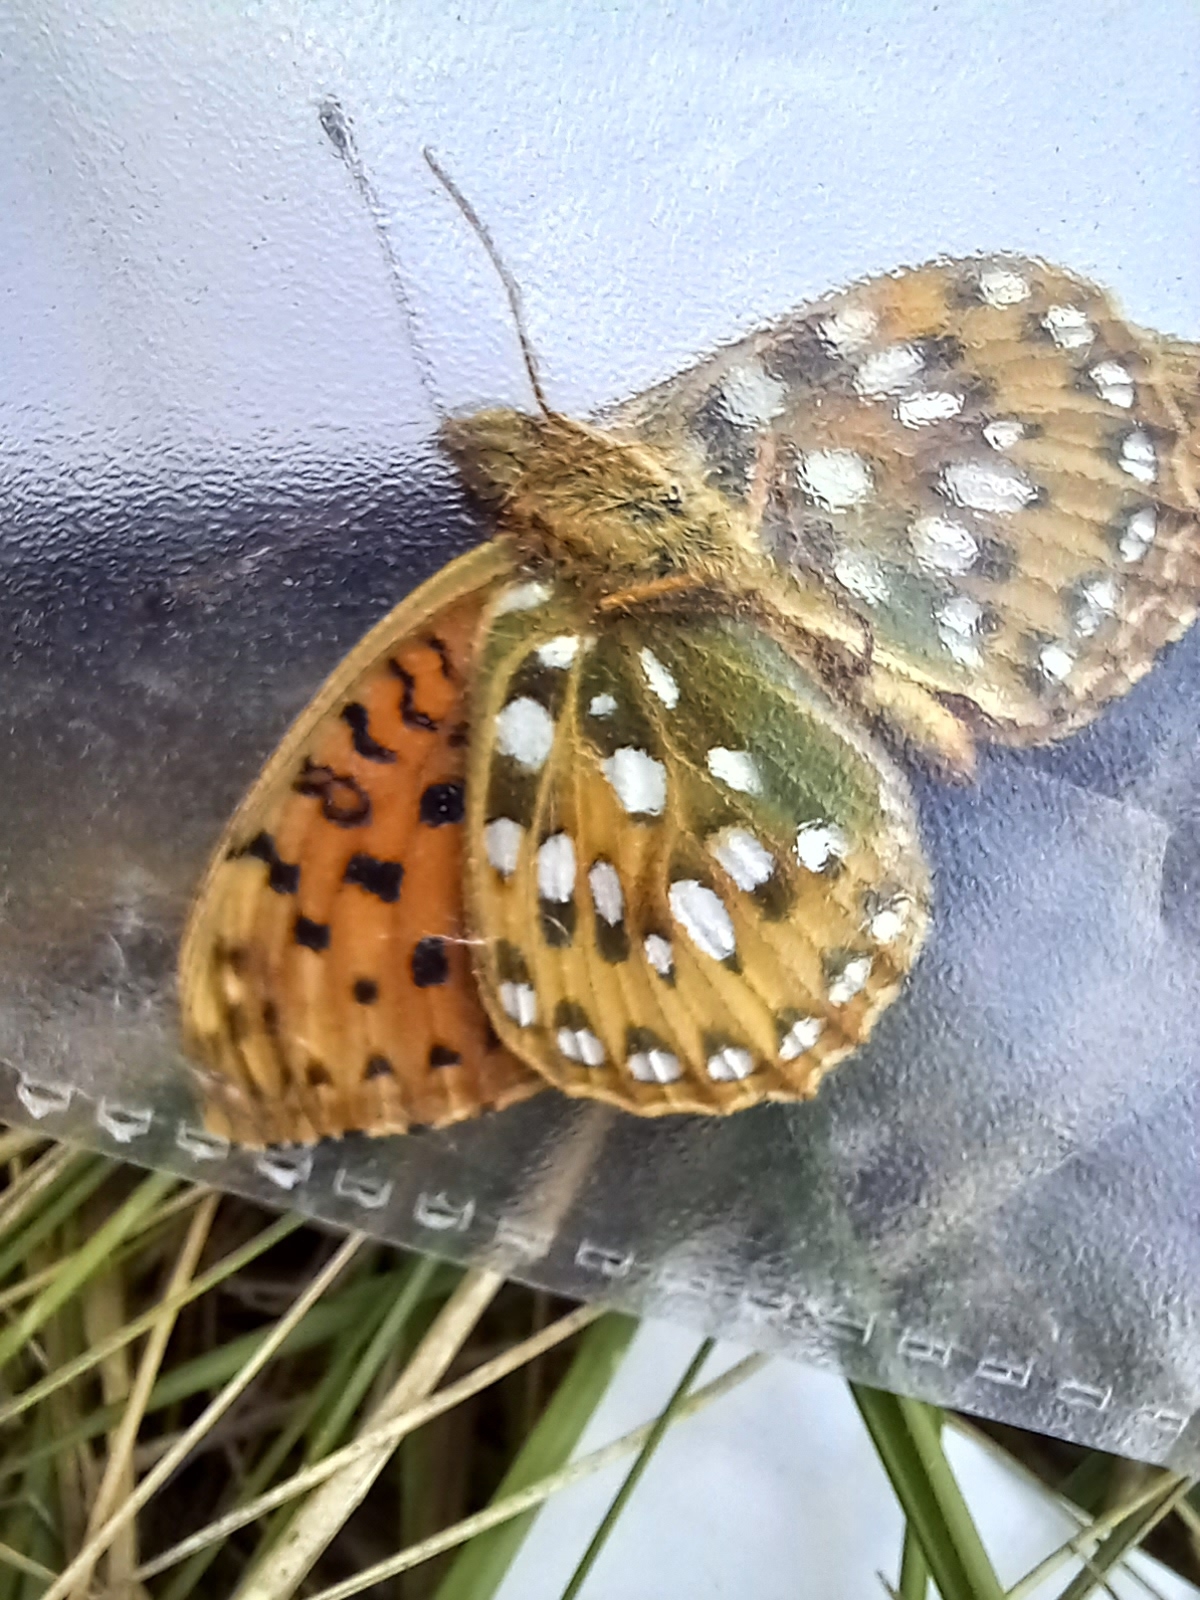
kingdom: Animalia
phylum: Arthropoda
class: Insecta
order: Lepidoptera
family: Nymphalidae
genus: Speyeria
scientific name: Speyeria aglaja
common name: Dark green fritillary
